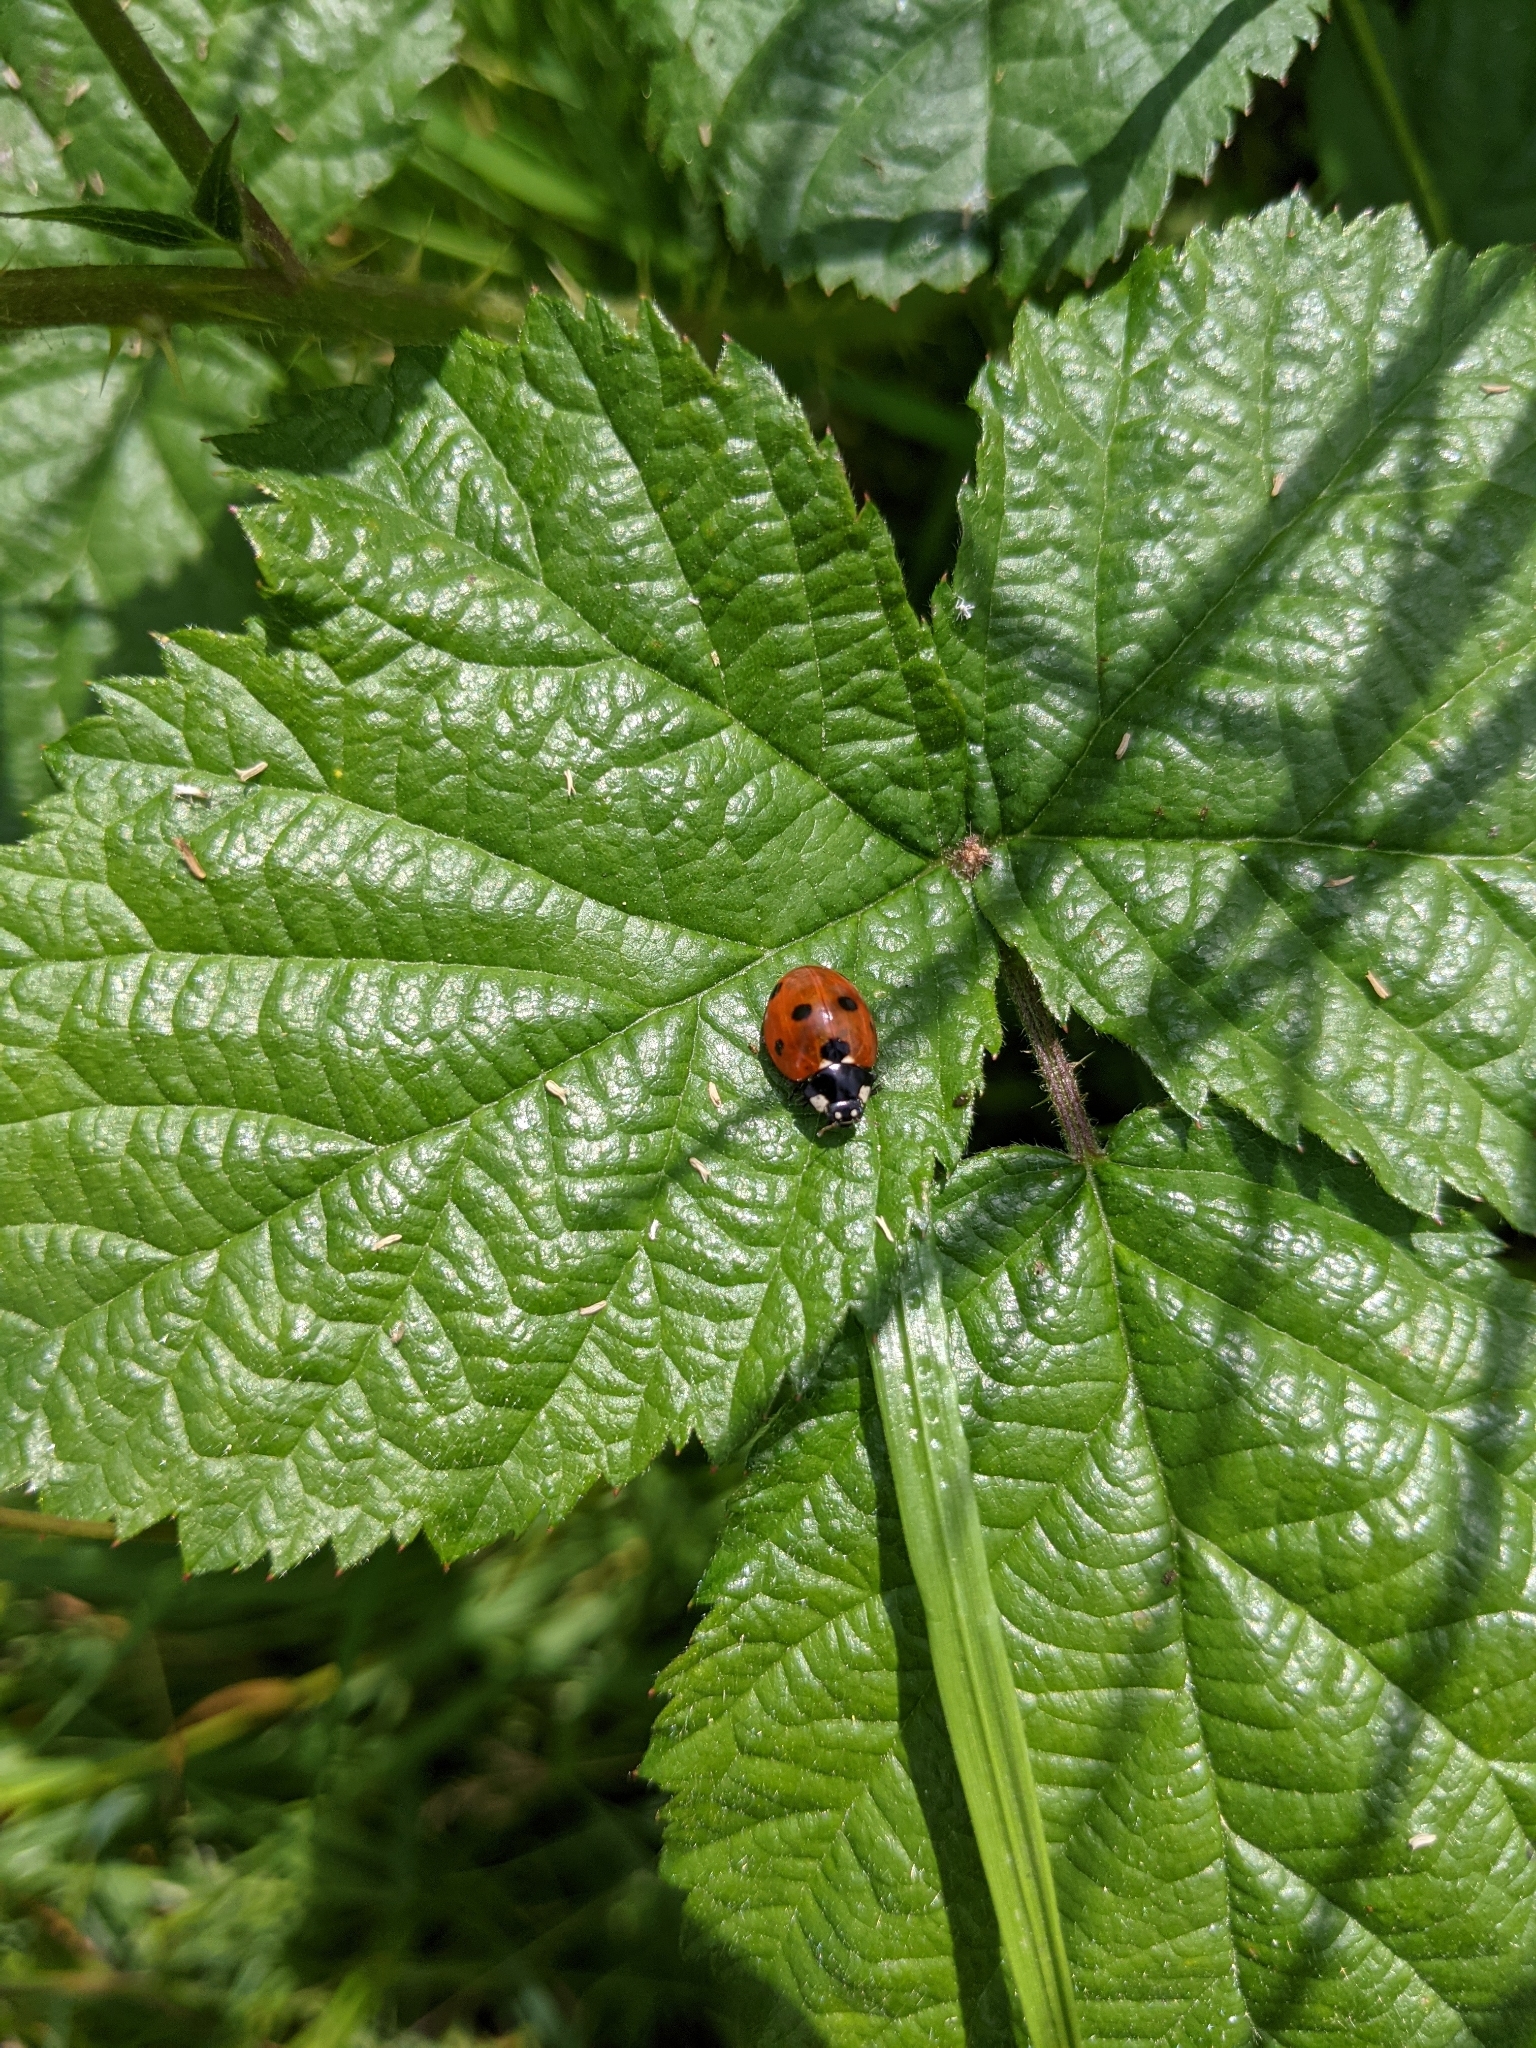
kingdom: Animalia
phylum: Arthropoda
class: Insecta
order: Coleoptera
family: Coccinellidae
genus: Coccinella
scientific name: Coccinella septempunctata
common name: Sevenspotted lady beetle
